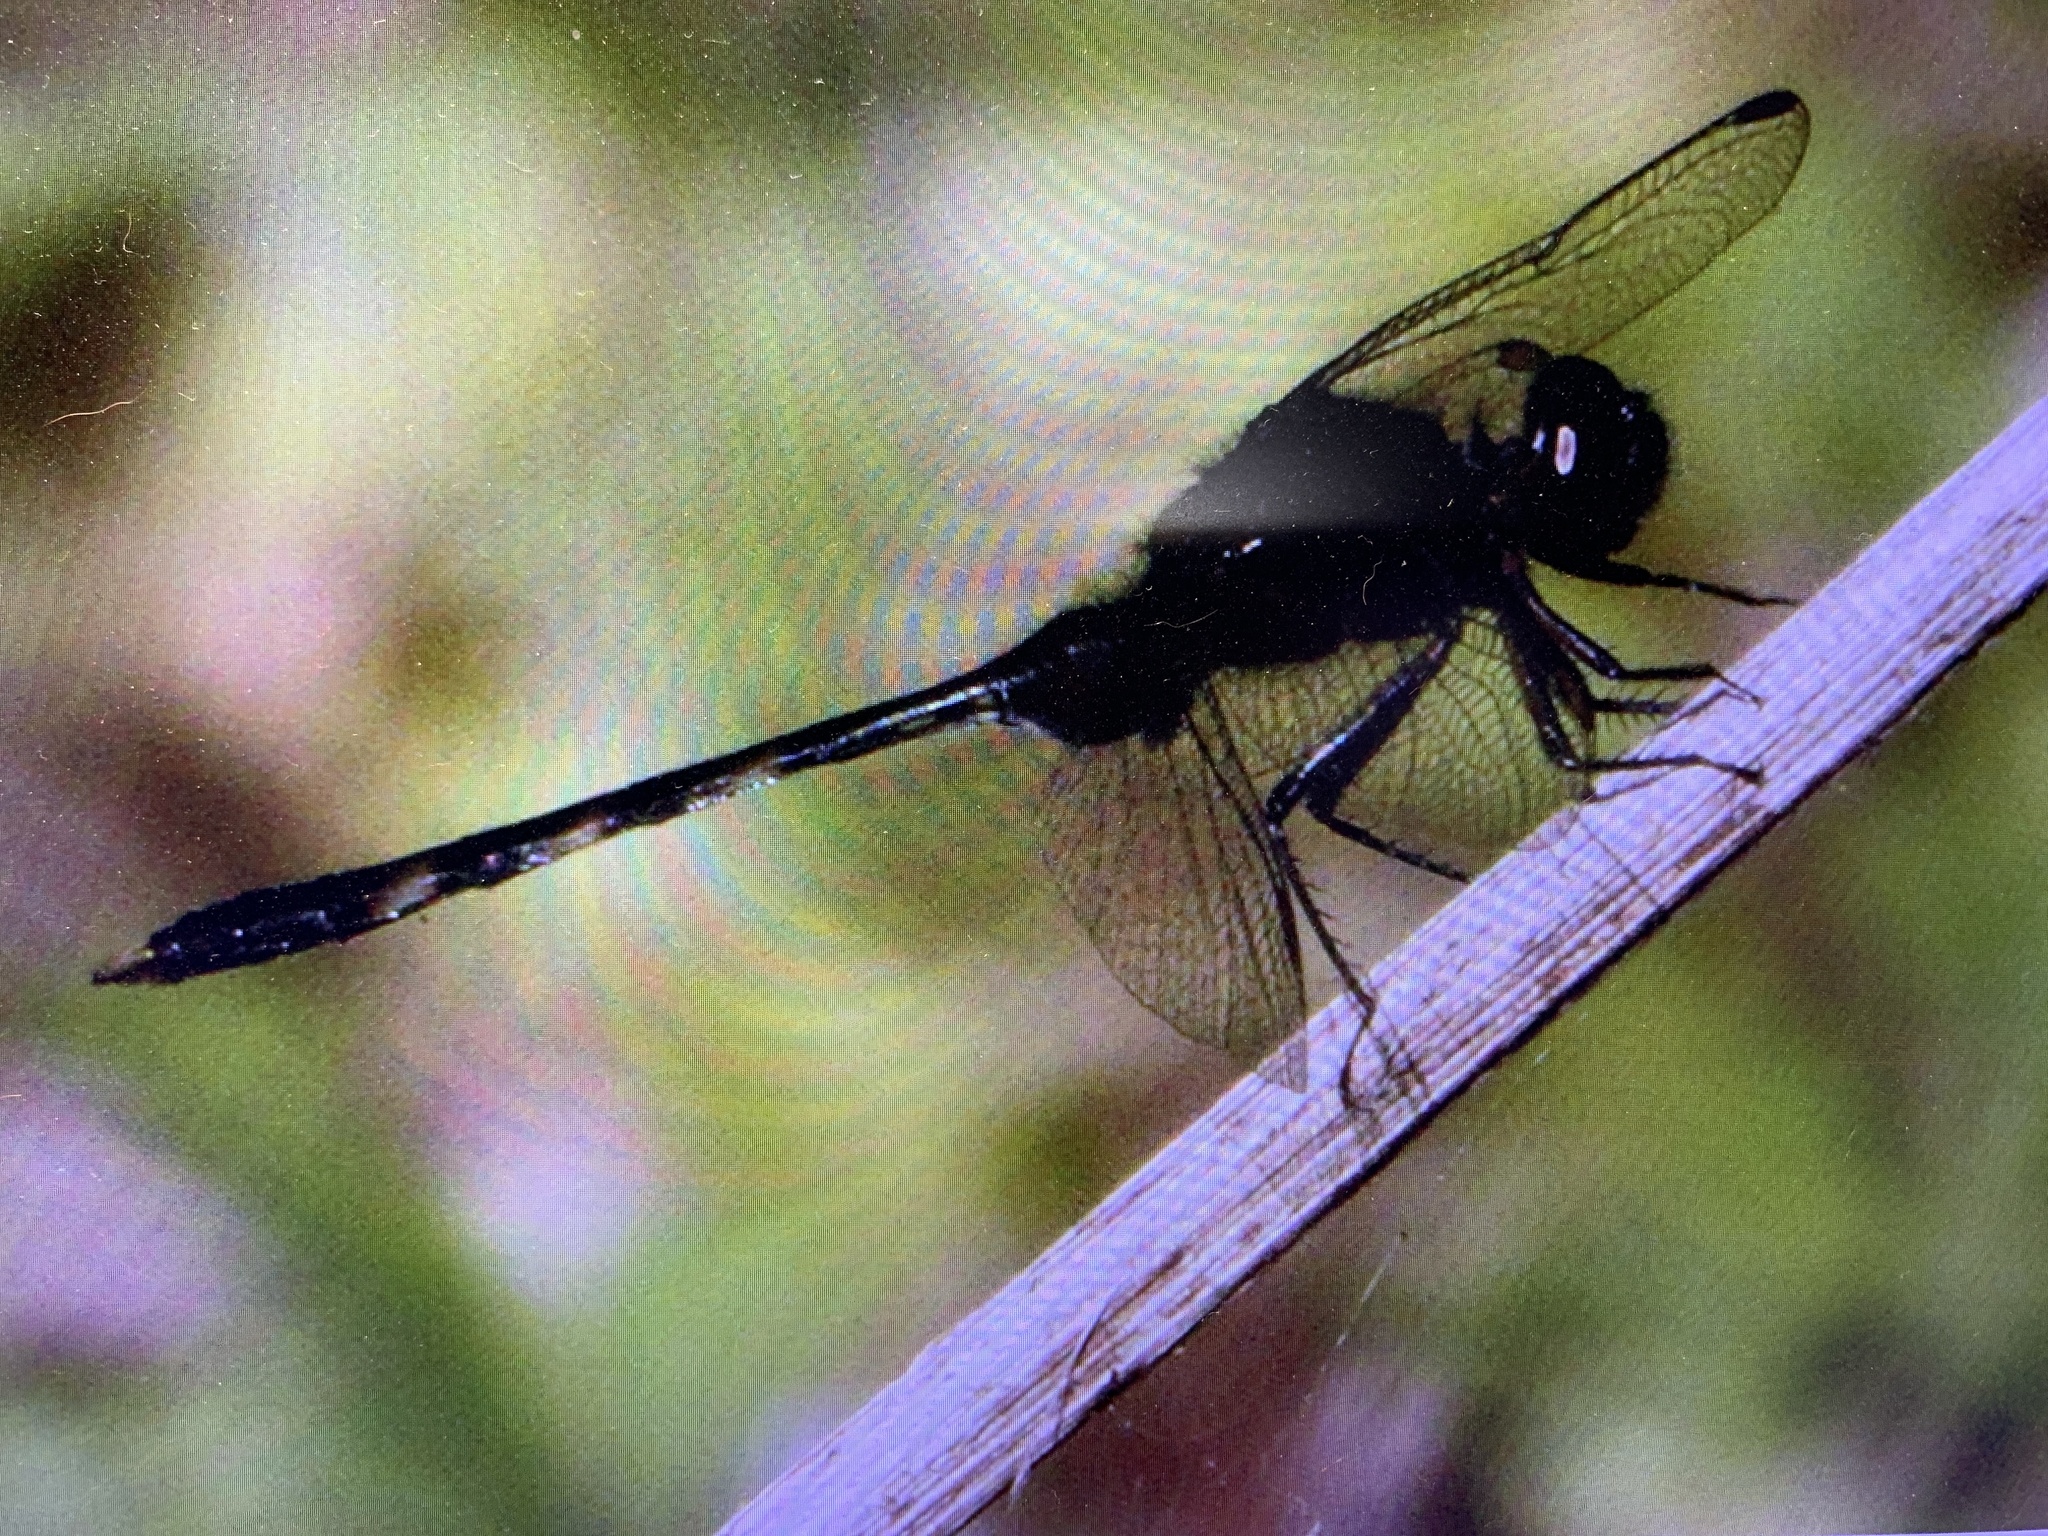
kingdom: Animalia
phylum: Arthropoda
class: Insecta
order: Odonata
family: Libellulidae
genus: Erythemis
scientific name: Erythemis plebeja
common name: Pin-tailed pondhawk
